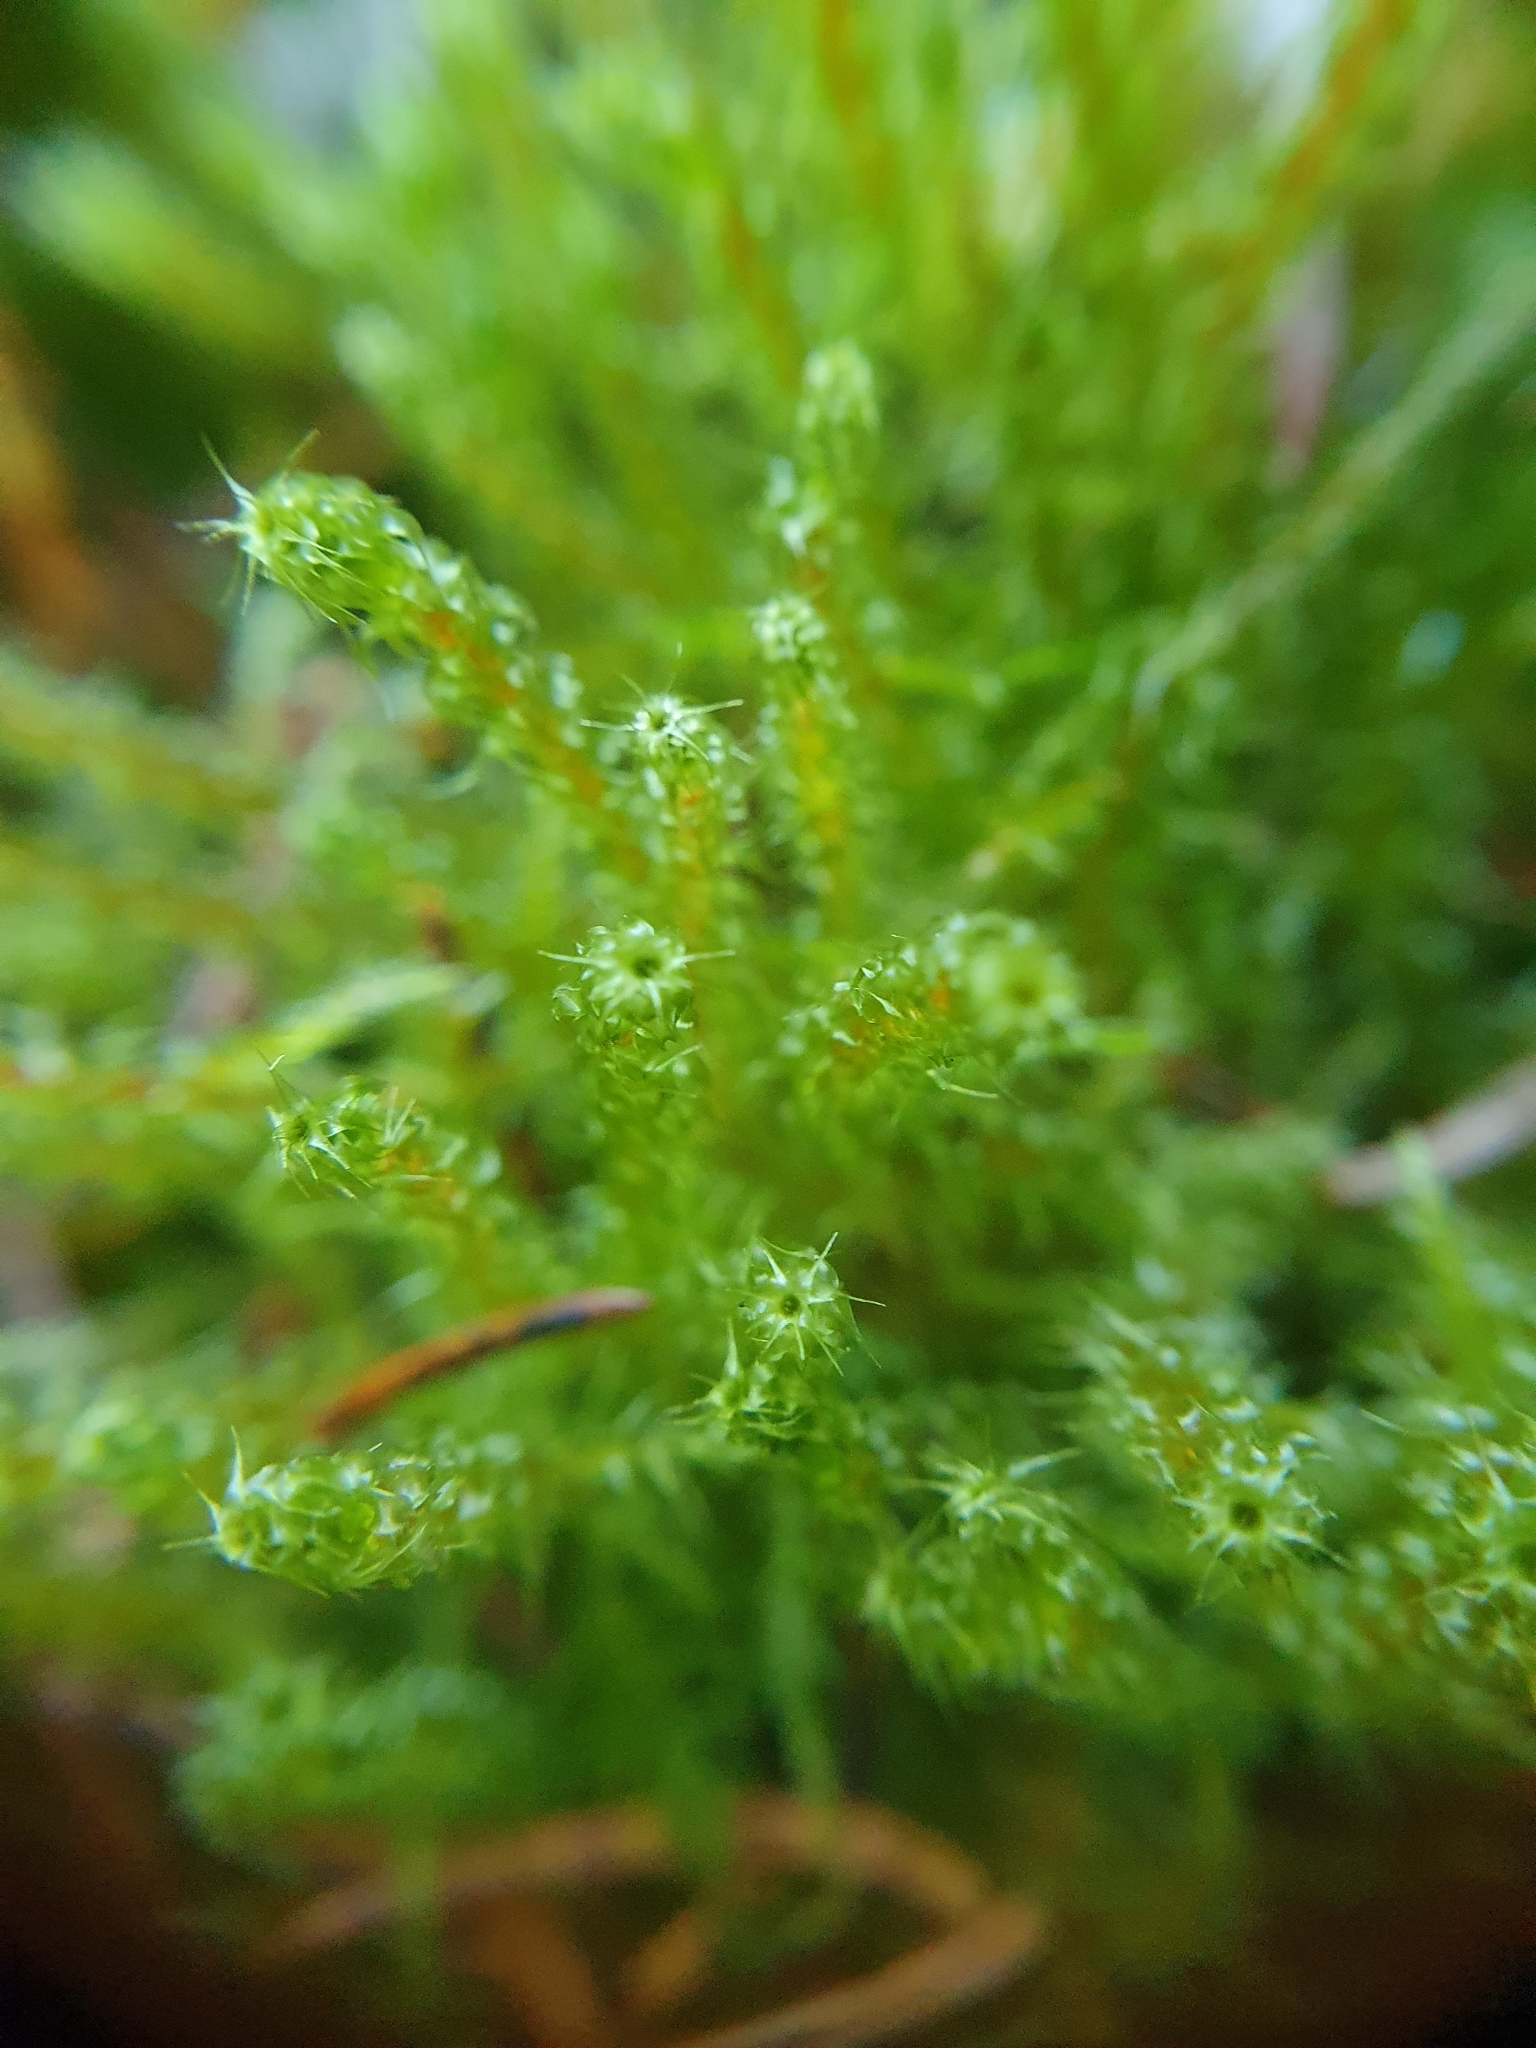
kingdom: Plantae
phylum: Bryophyta
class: Bryopsida
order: Hypnales
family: Hylocomiaceae
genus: Rhytidiadelphus
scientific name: Rhytidiadelphus squarrosus
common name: Springy turf-moss
